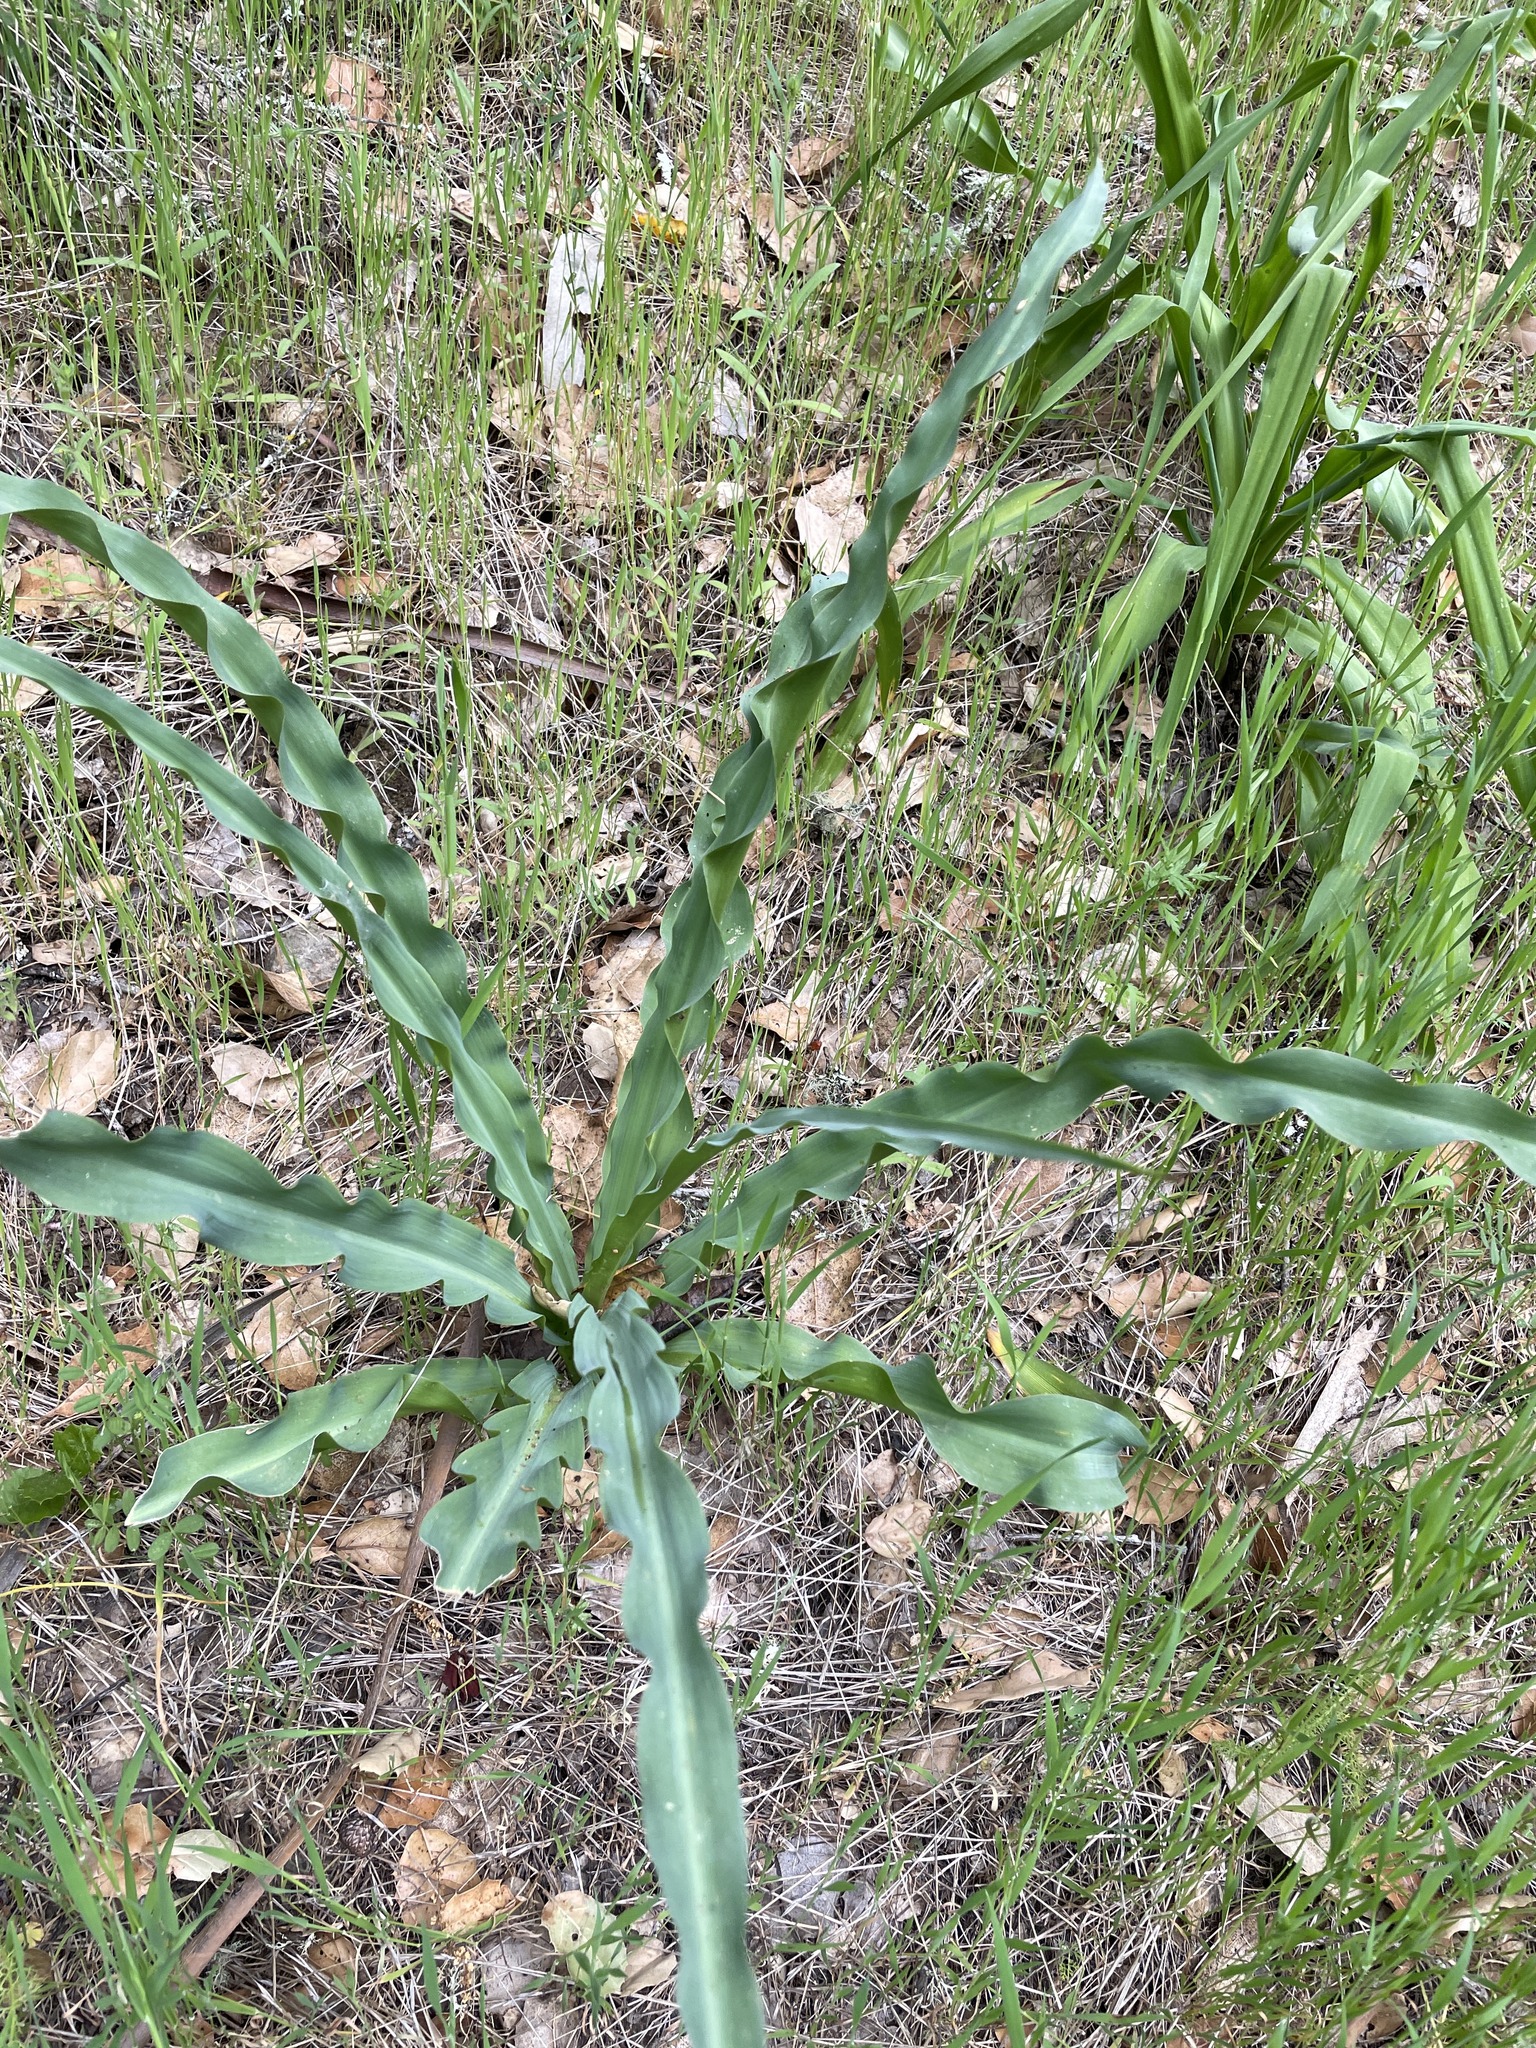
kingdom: Plantae
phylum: Tracheophyta
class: Liliopsida
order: Asparagales
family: Asparagaceae
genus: Chlorogalum
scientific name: Chlorogalum pomeridianum
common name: Amole
